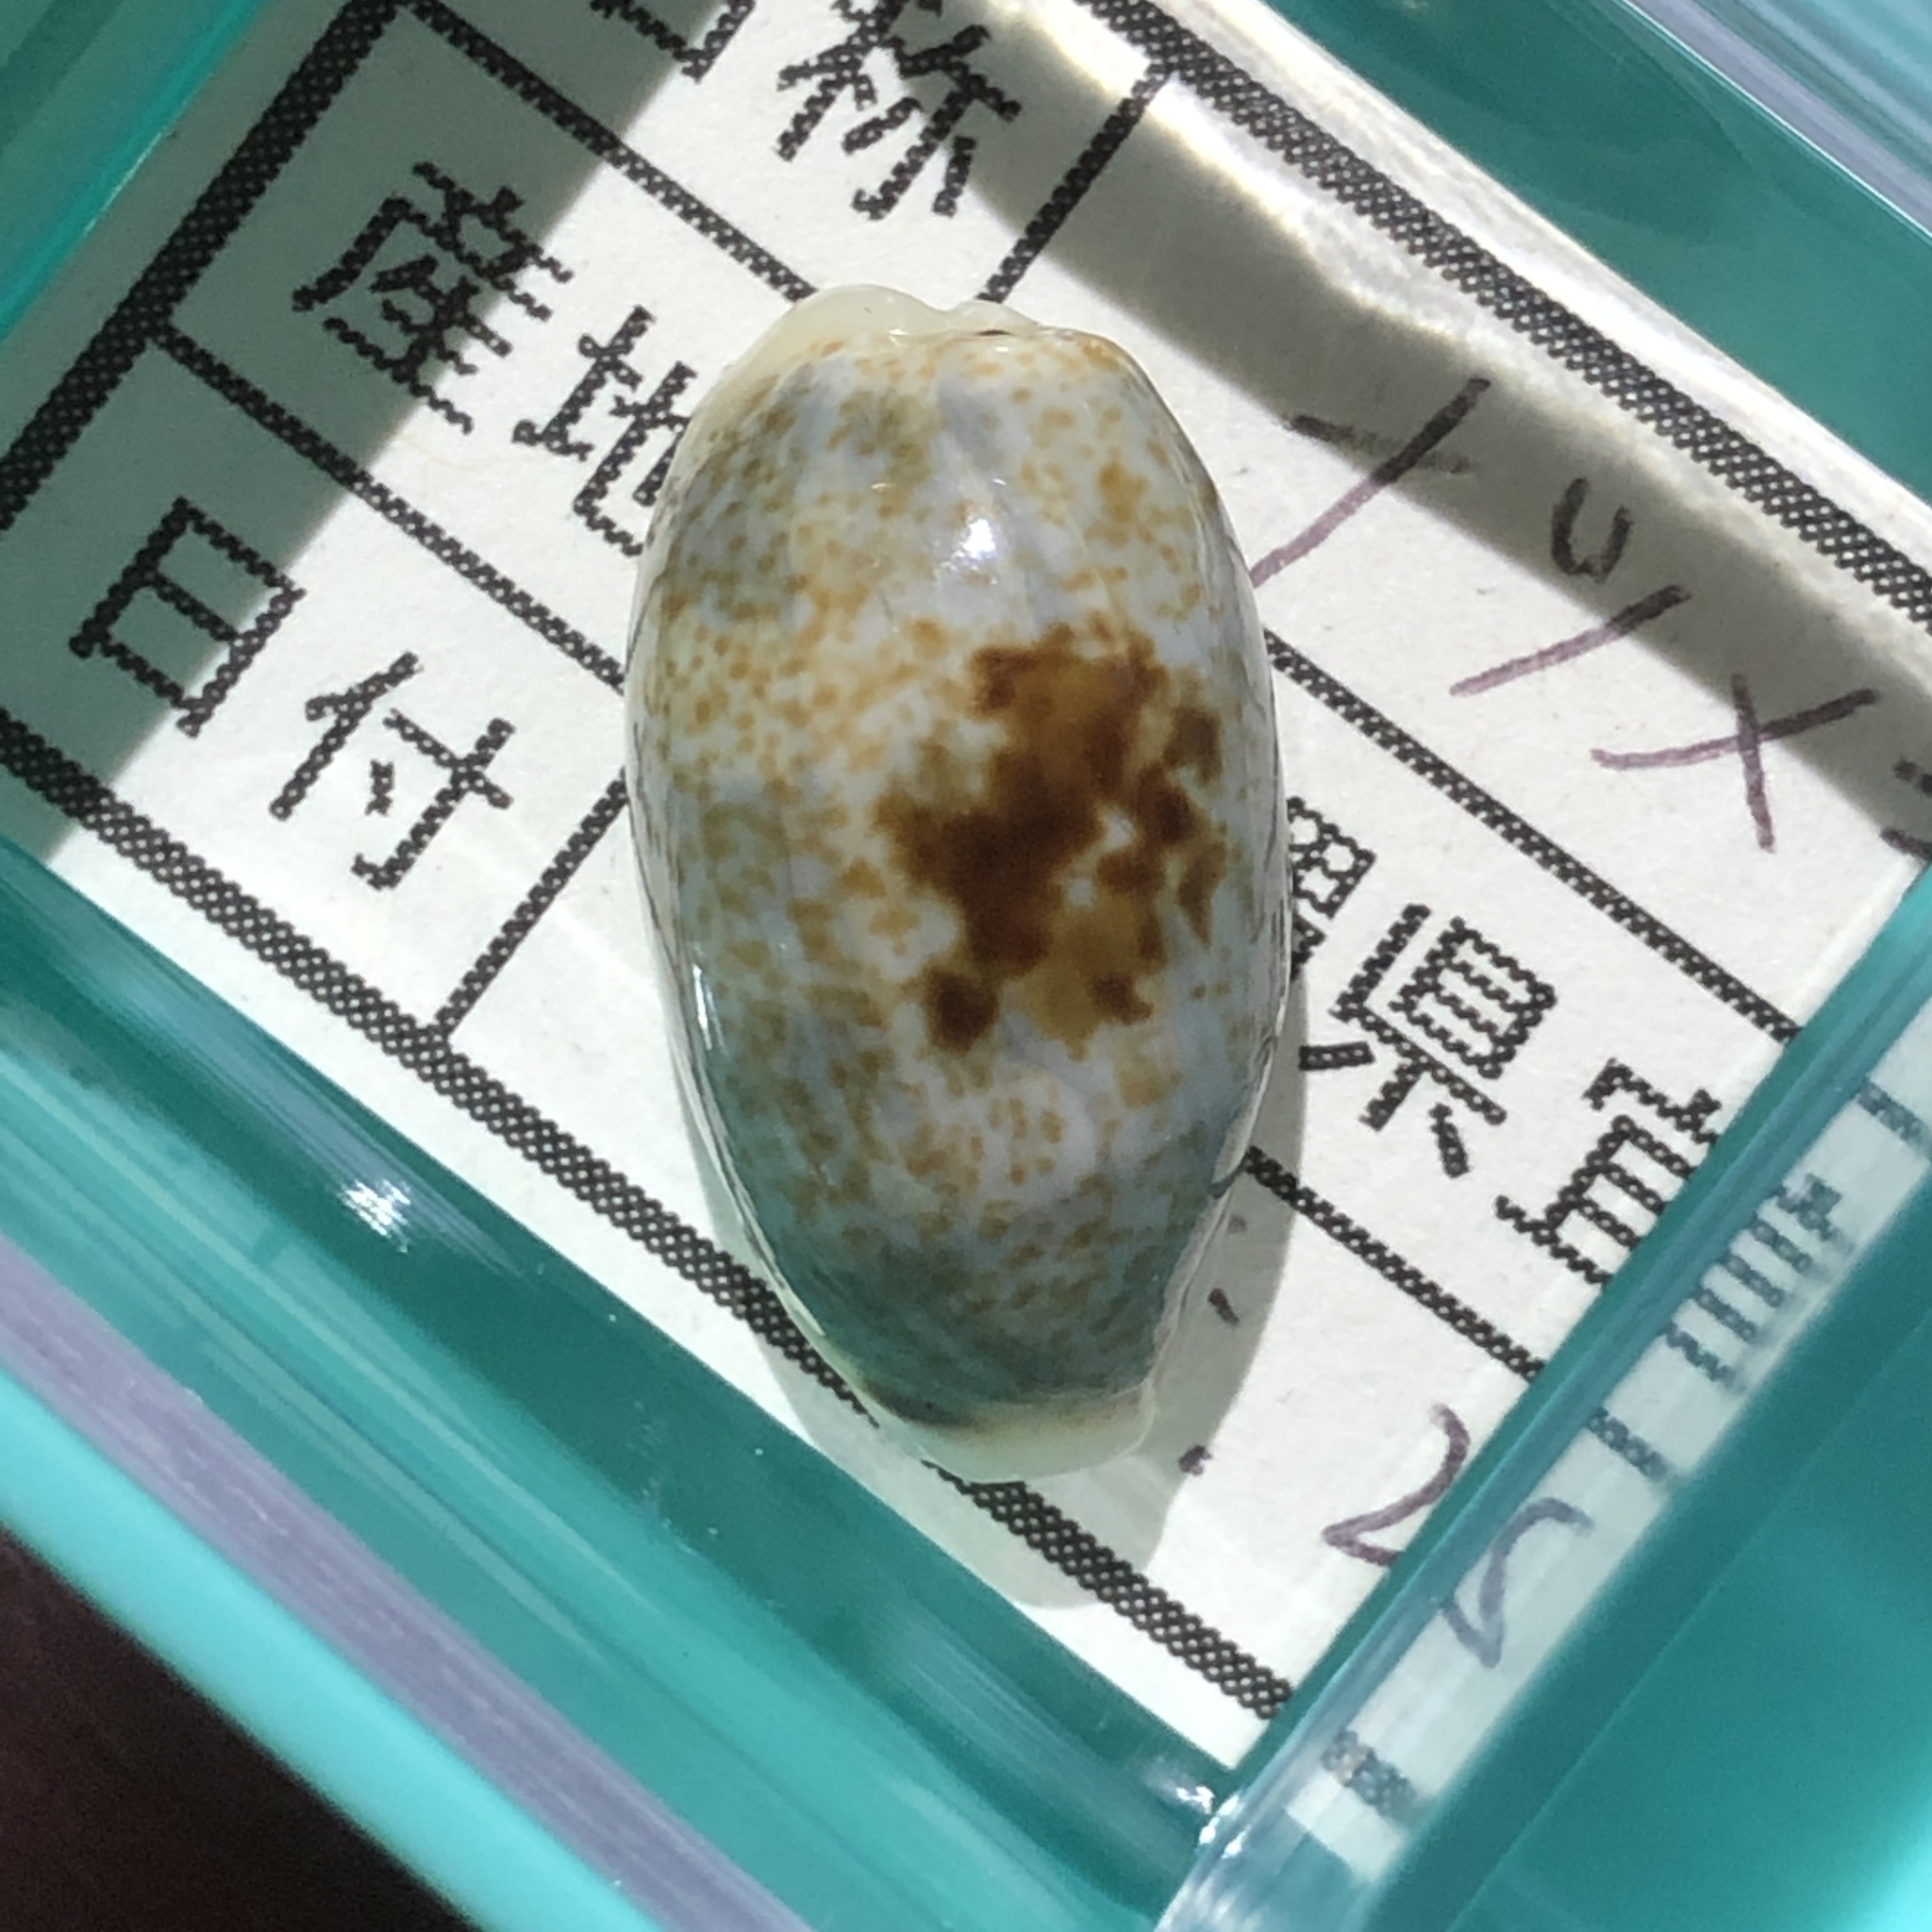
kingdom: Animalia
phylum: Mollusca
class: Gastropoda
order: Littorinimorpha
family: Cypraeidae
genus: Erronea
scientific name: Erronea errones
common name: Mistaken cowrie
